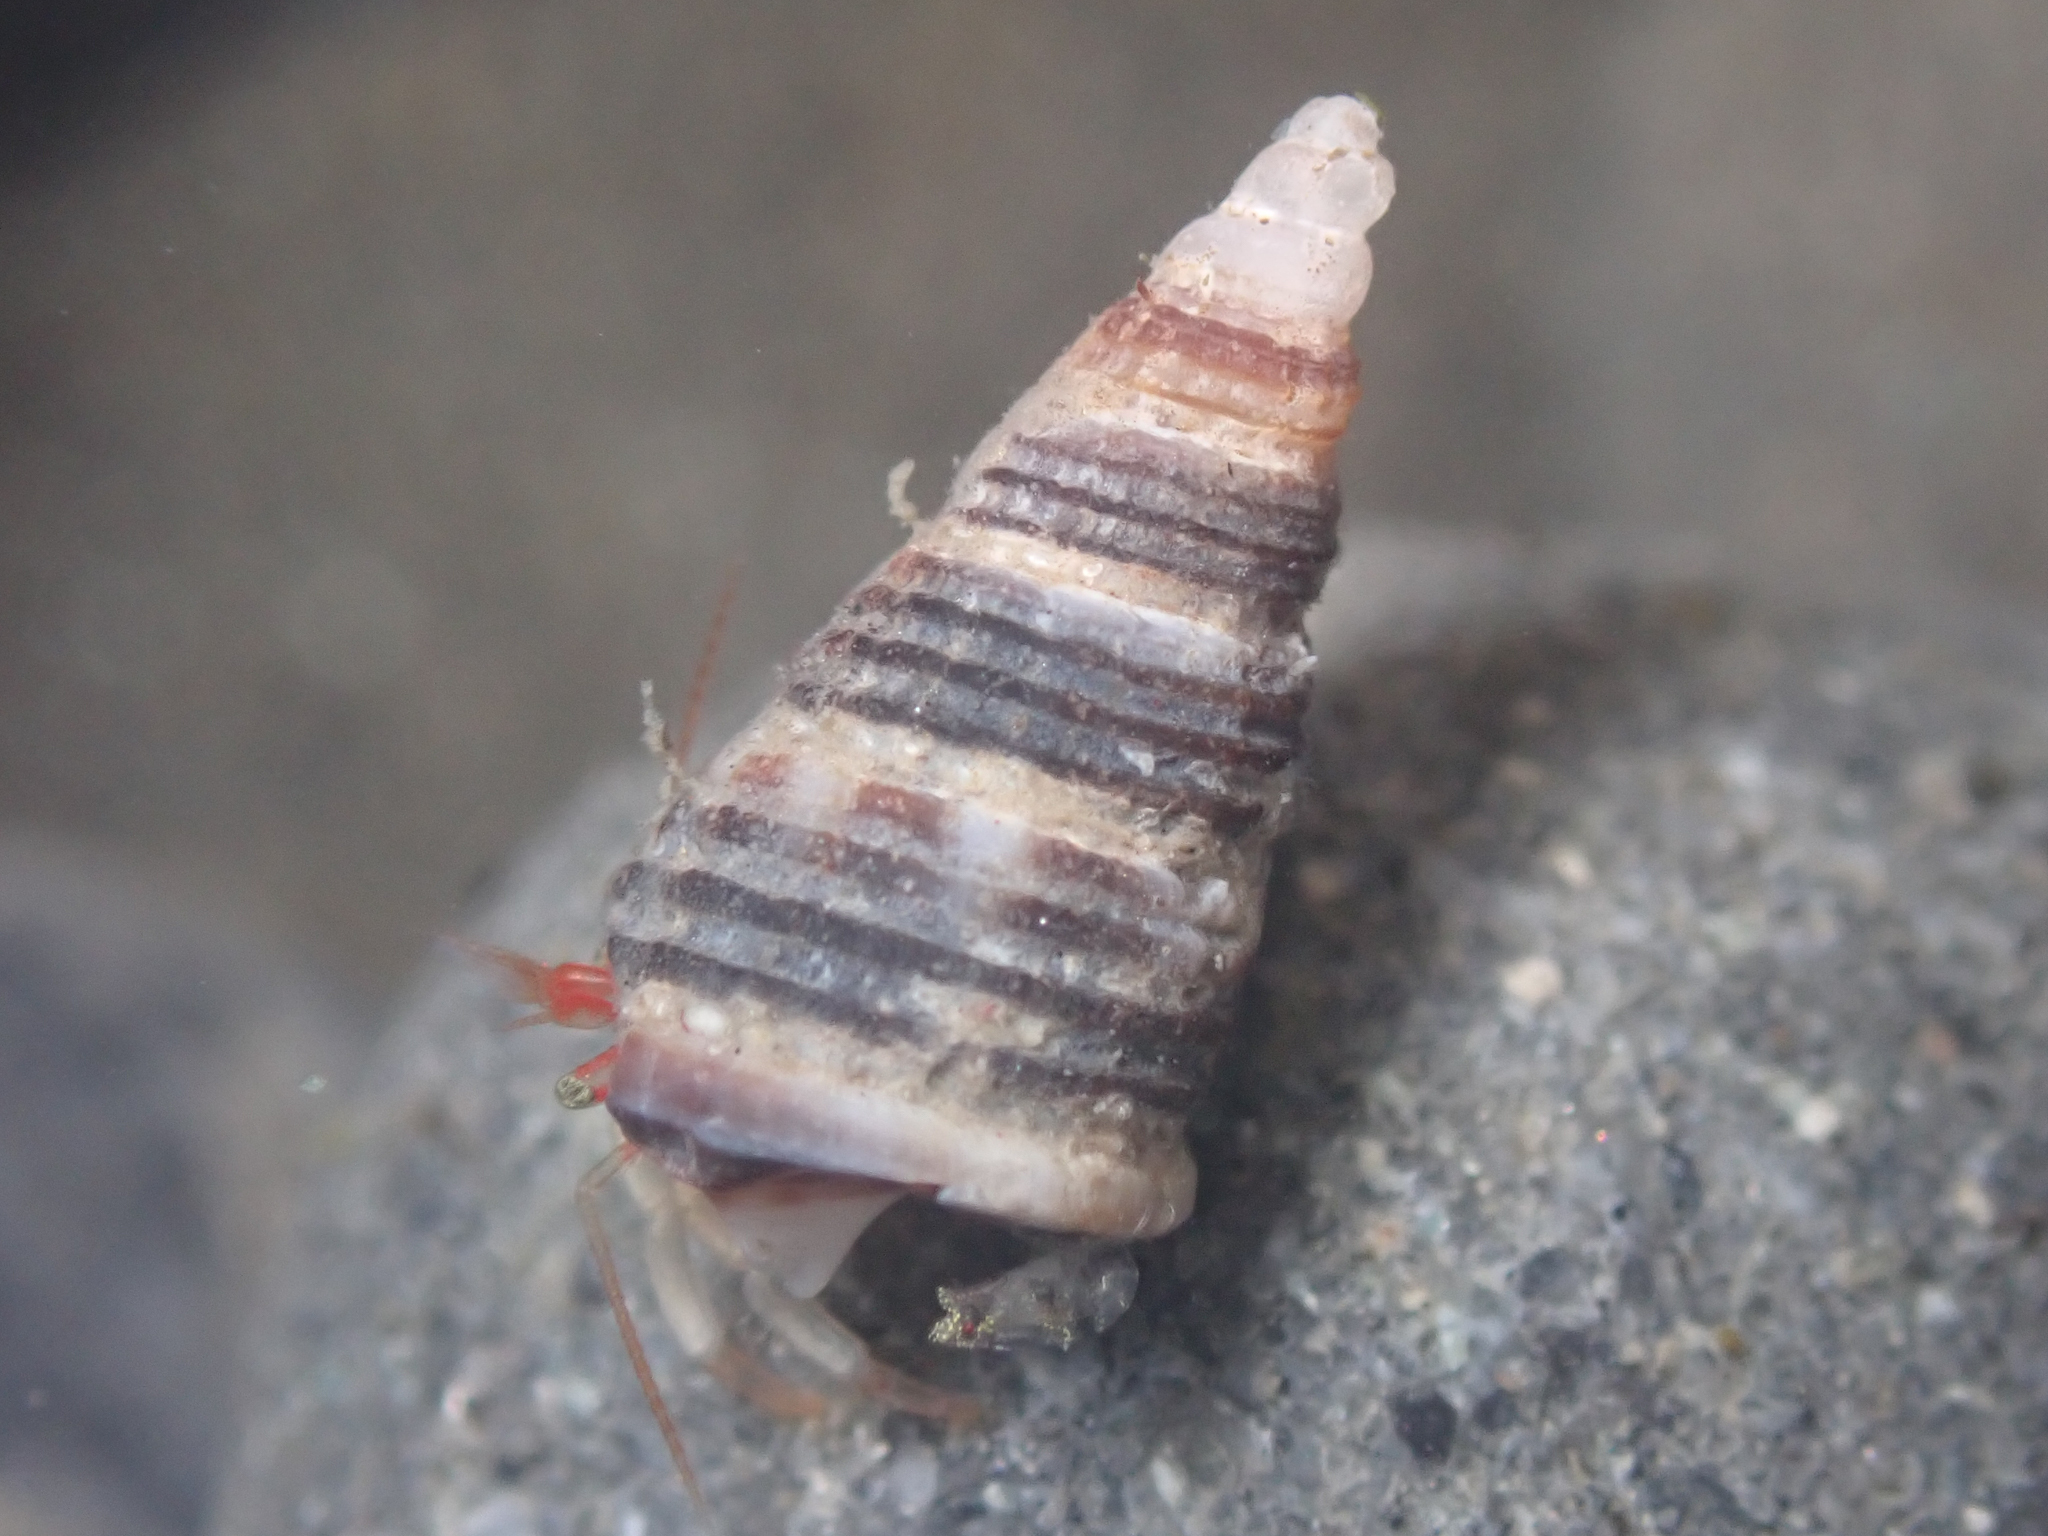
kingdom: Animalia
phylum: Mollusca
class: Gastropoda
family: Cerithiidae
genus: Neostylidium
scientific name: Neostylidium eschrichtii
